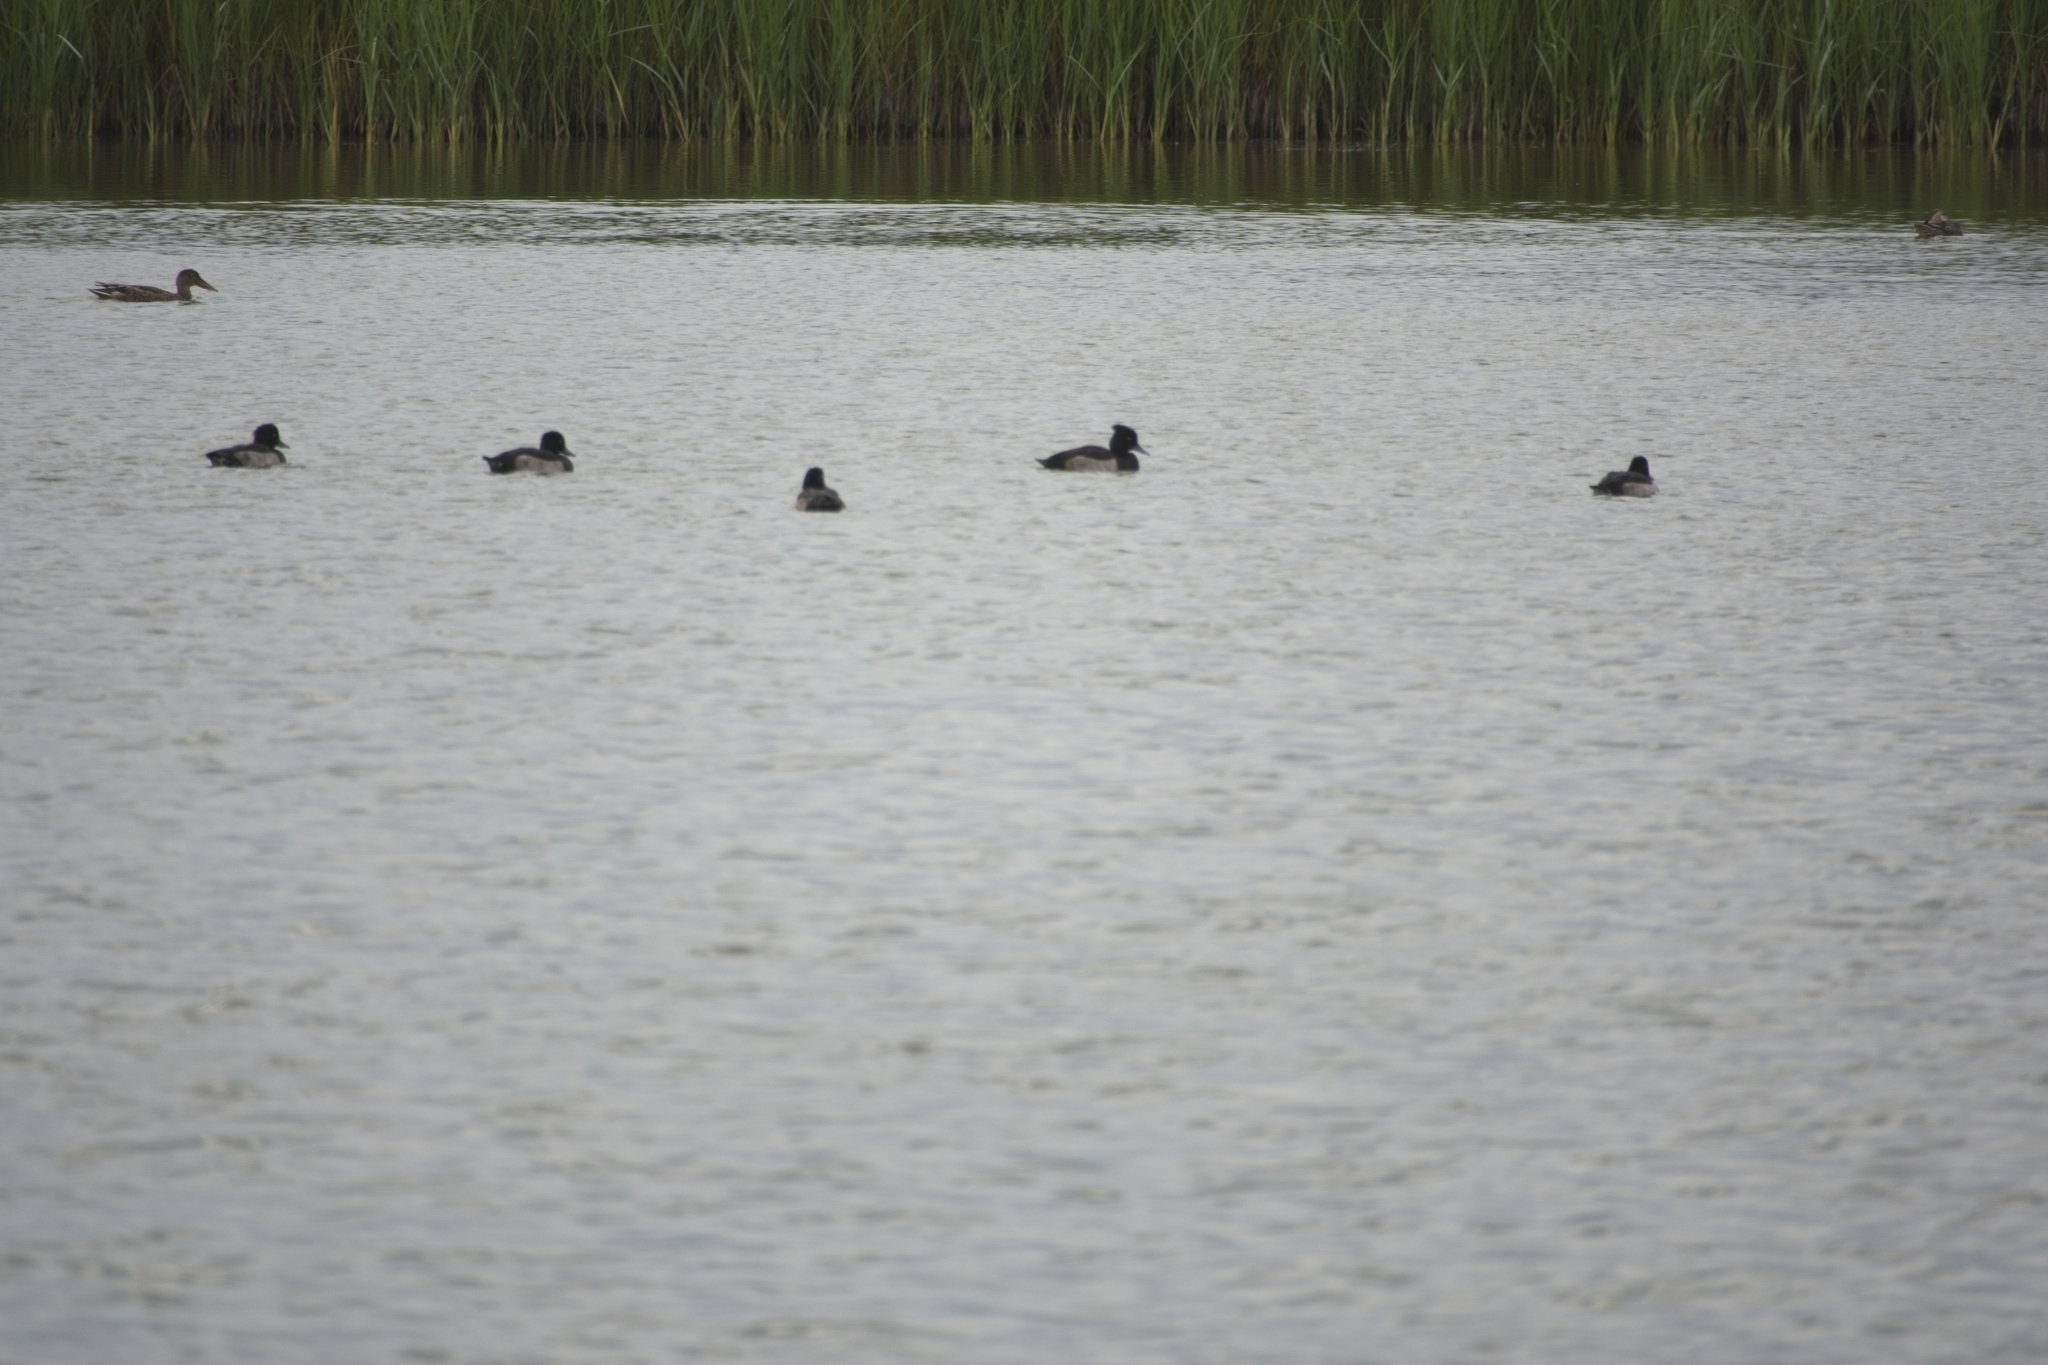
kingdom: Animalia
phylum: Chordata
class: Aves
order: Anseriformes
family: Anatidae
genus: Aythya
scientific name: Aythya fuligula
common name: Tufted duck
